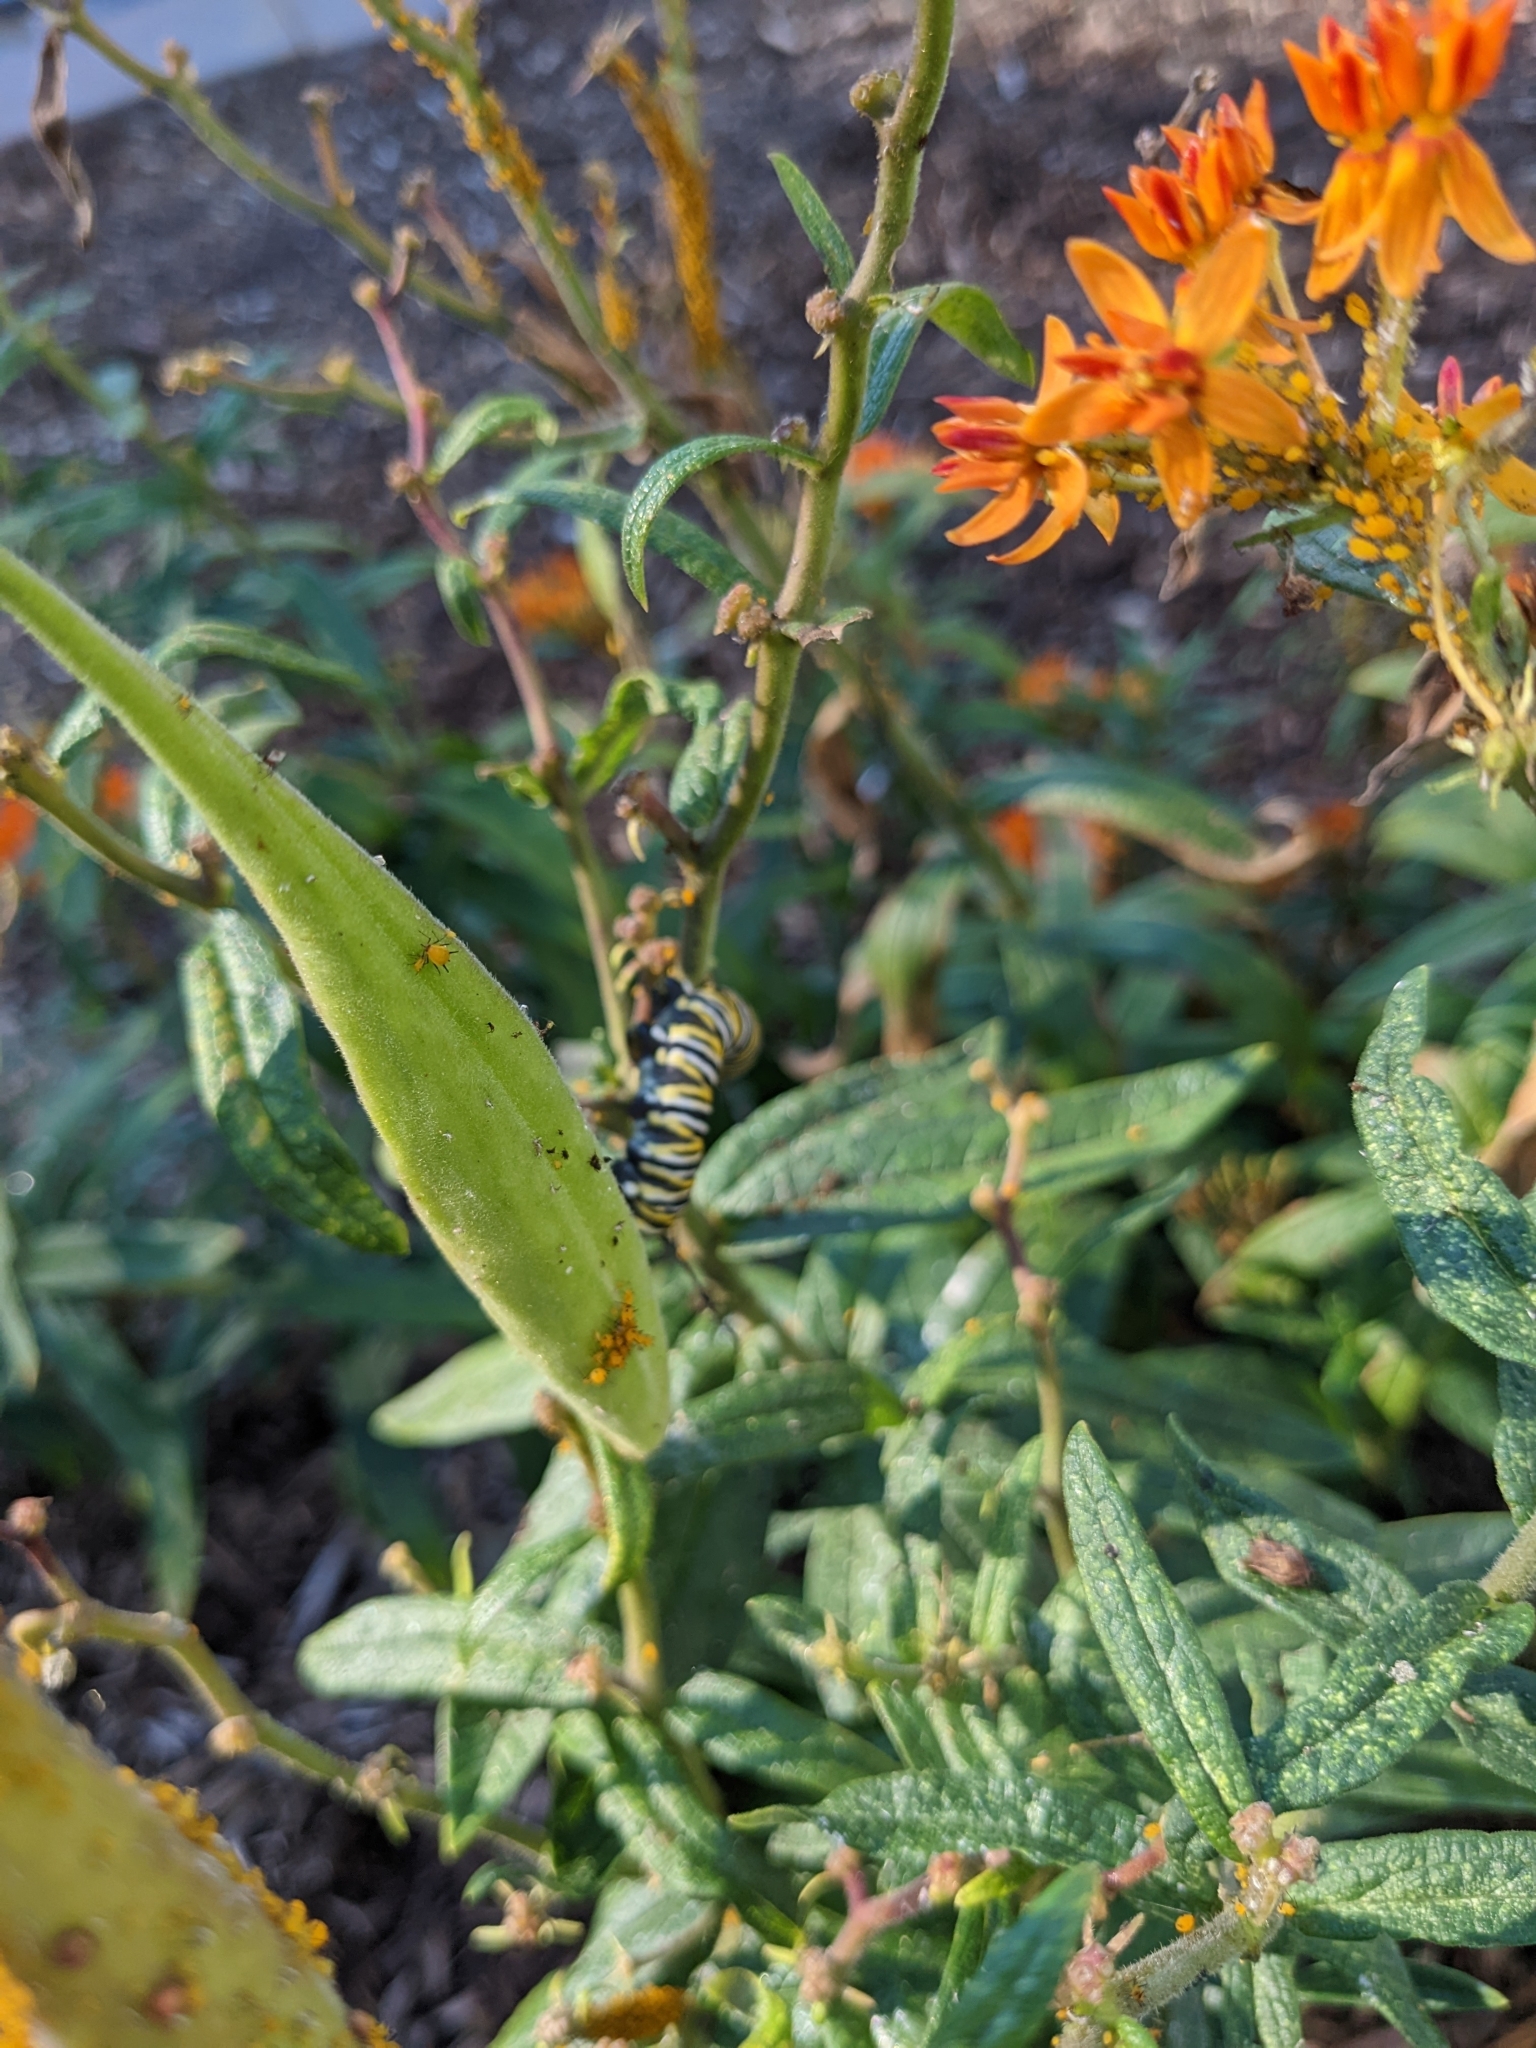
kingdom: Animalia
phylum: Arthropoda
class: Insecta
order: Lepidoptera
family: Nymphalidae
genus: Danaus
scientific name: Danaus plexippus
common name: Monarch
